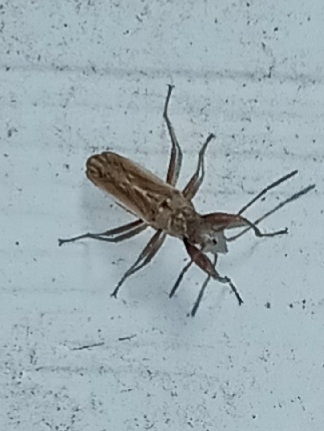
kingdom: Animalia
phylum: Arthropoda
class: Insecta
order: Hemiptera
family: Rhyparochromidae
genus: Paromius
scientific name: Paromius longulus
